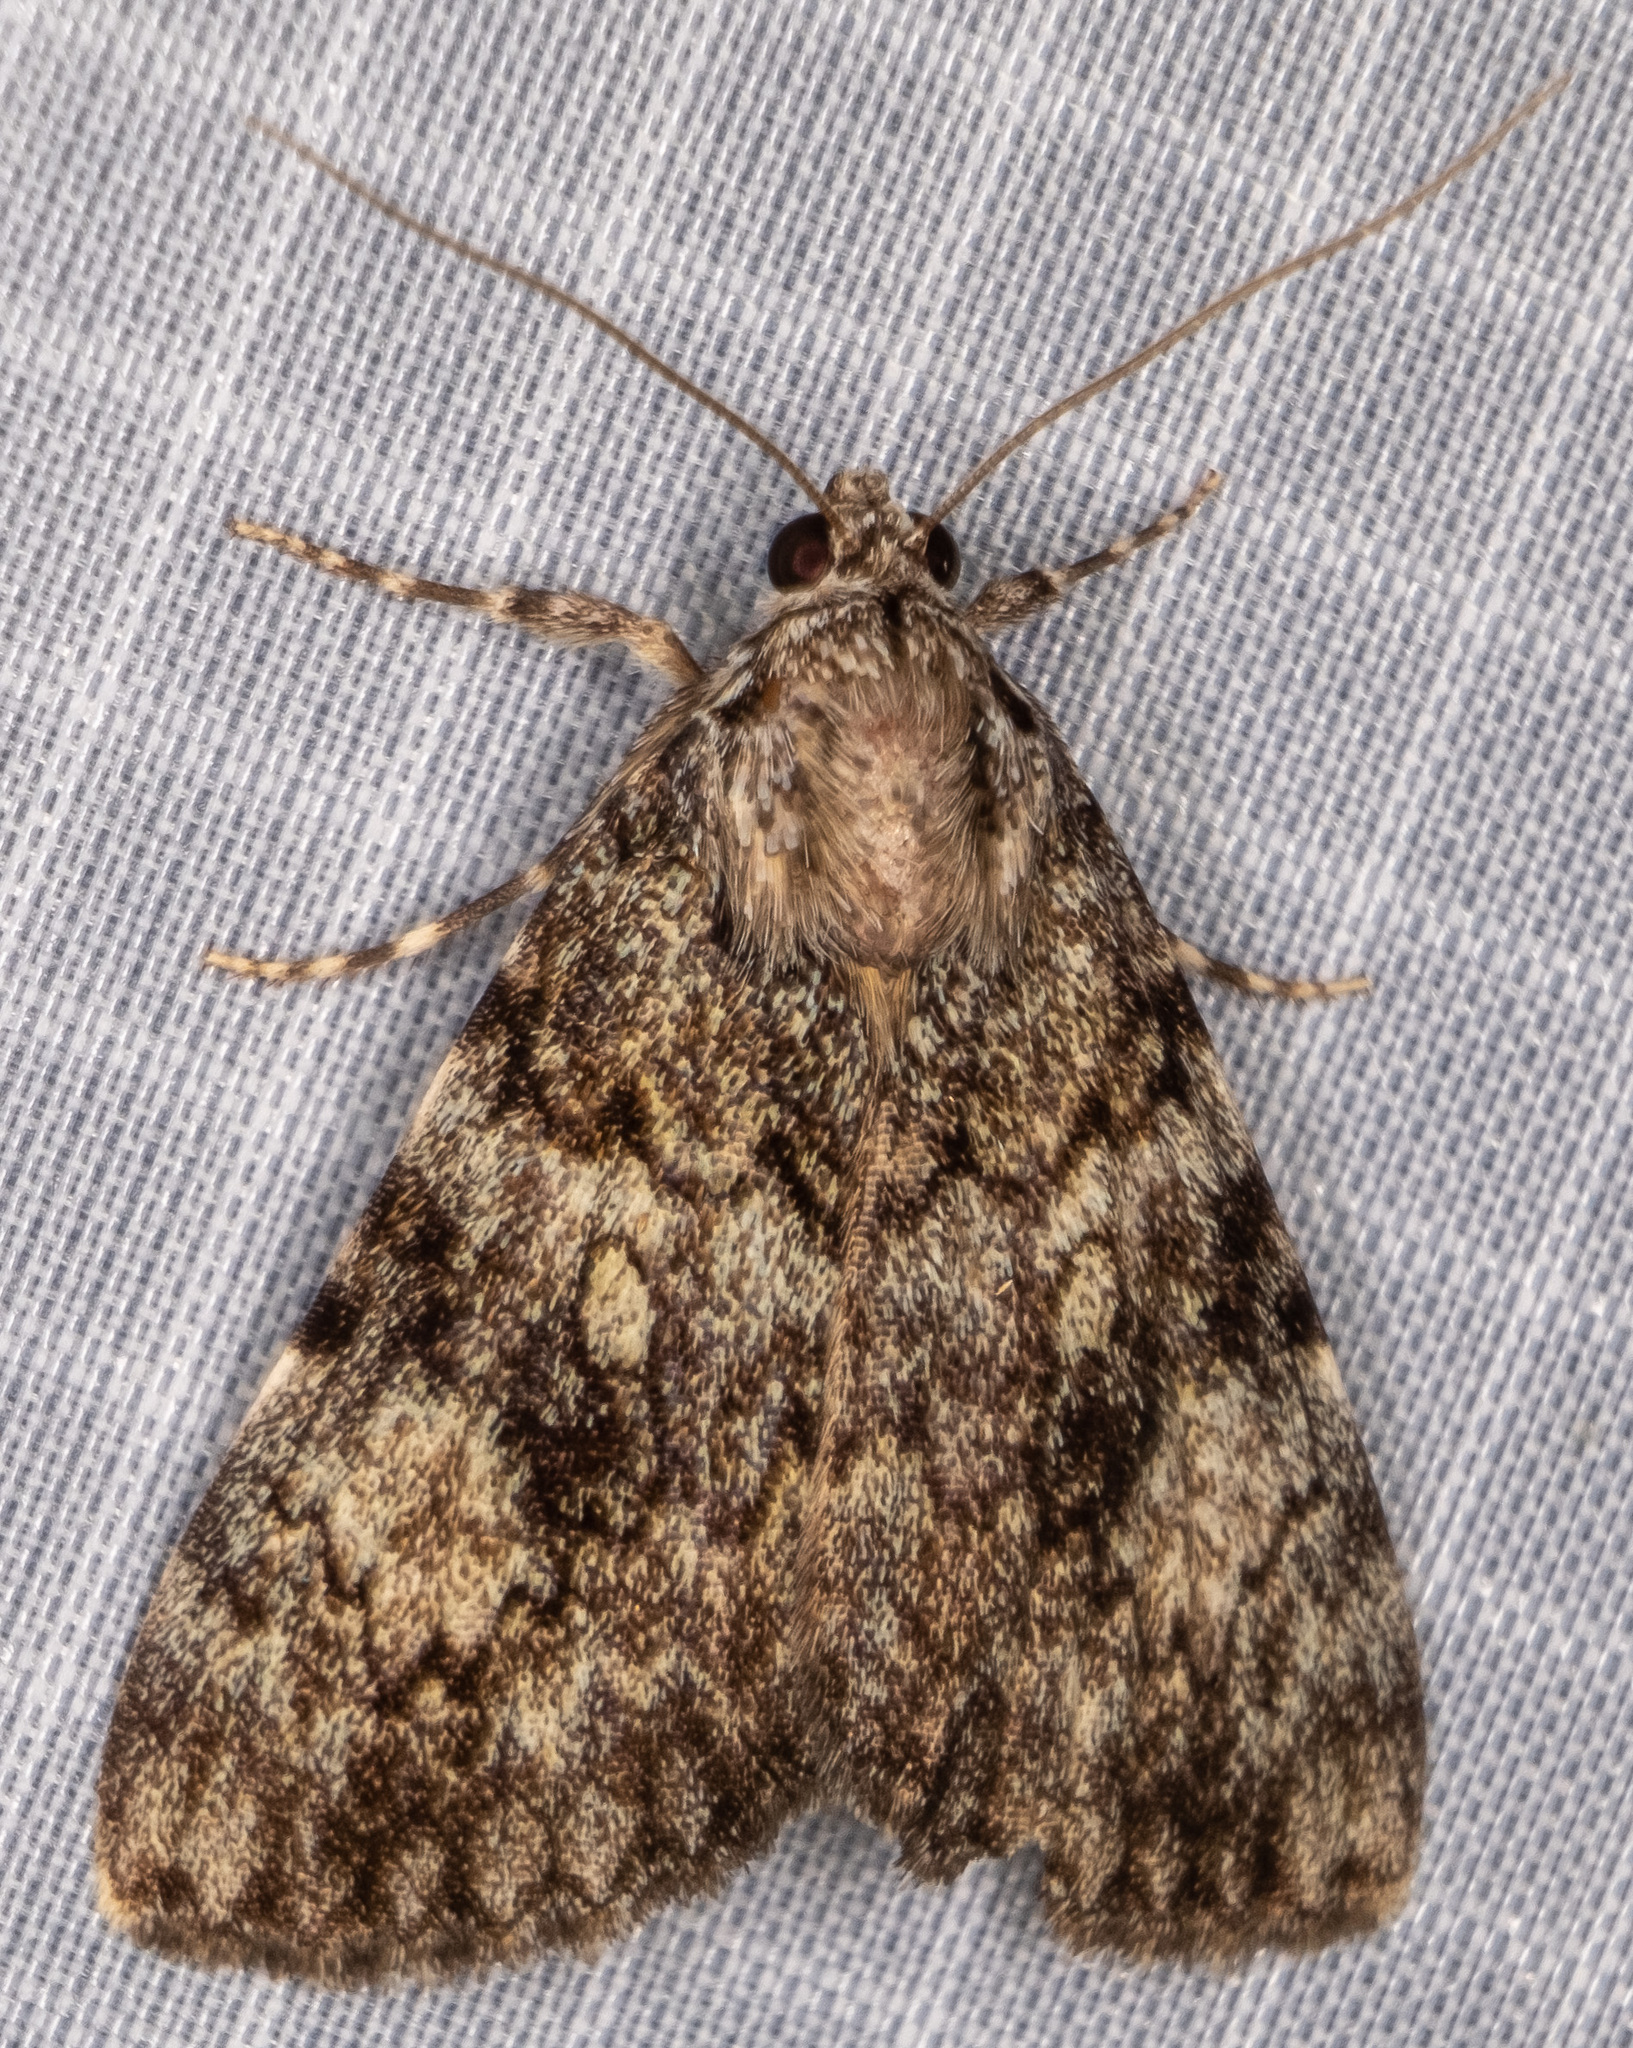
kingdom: Animalia
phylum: Arthropoda
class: Insecta
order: Lepidoptera
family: Erebidae
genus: Catocala
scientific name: Catocala lineella
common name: Little lined underwing
